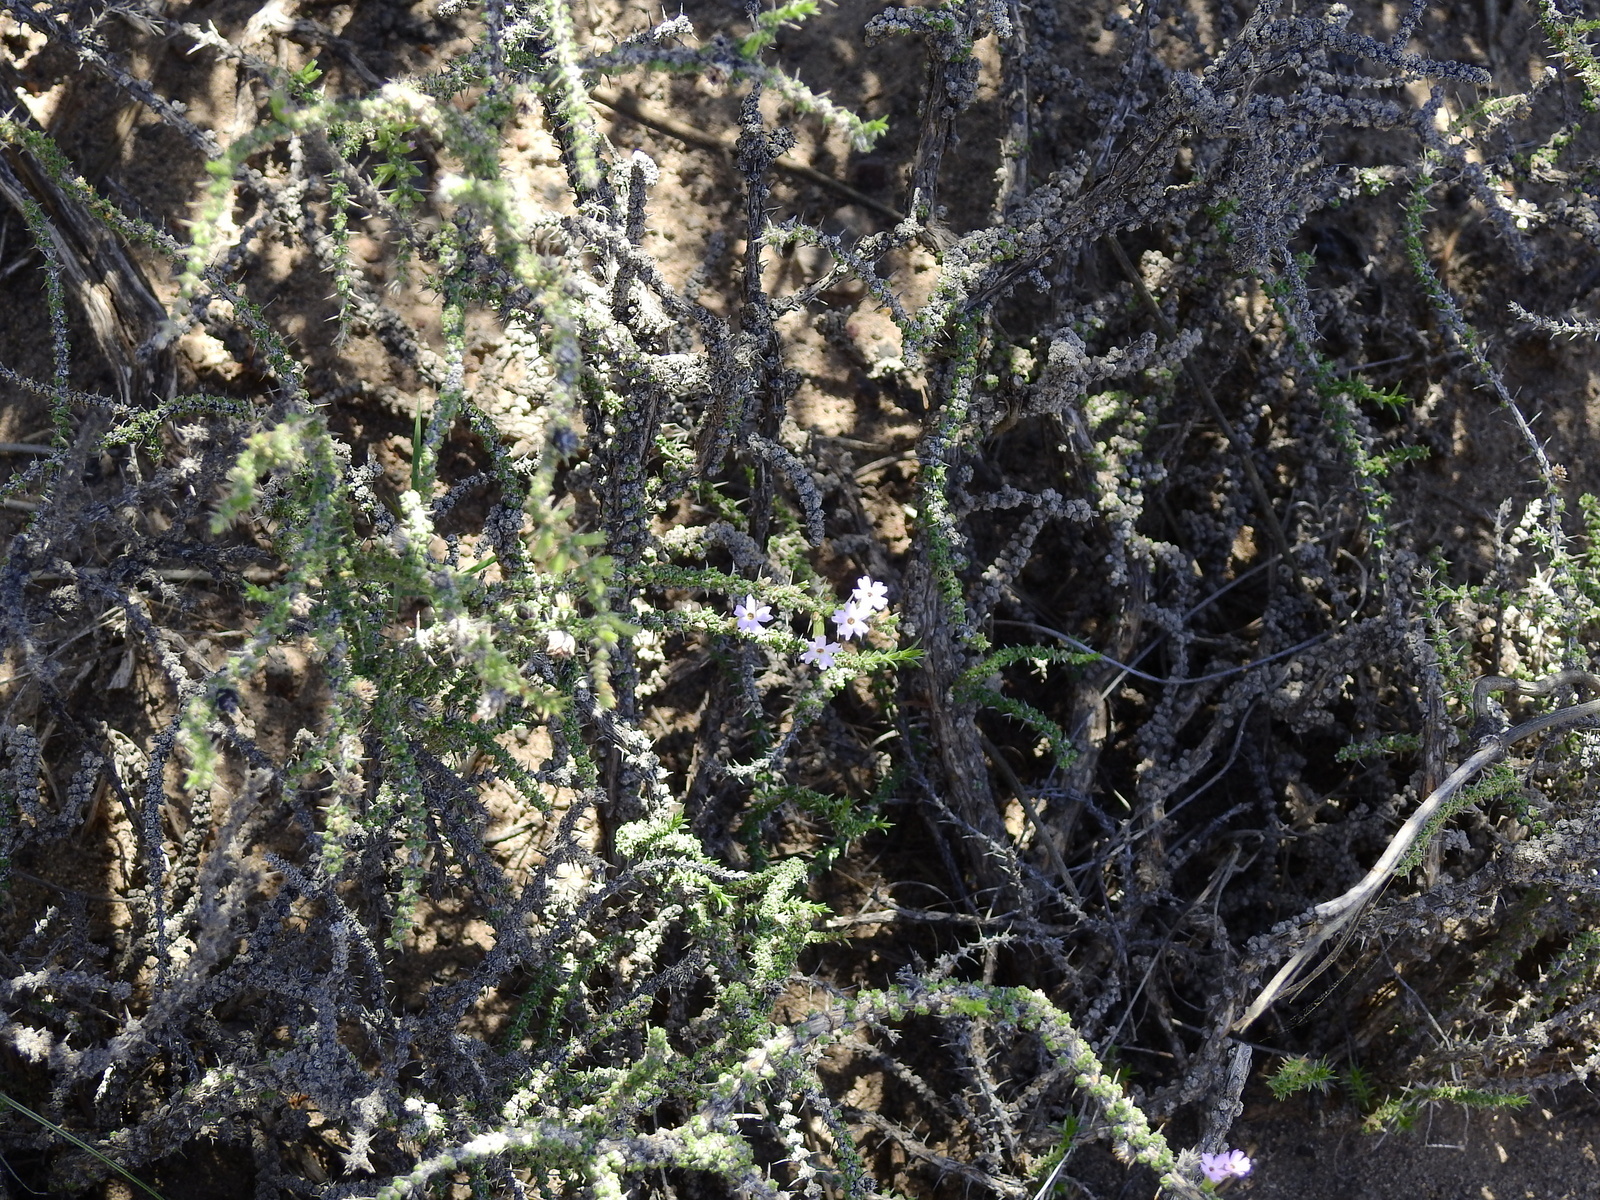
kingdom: Plantae
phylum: Tracheophyta
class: Magnoliopsida
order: Lamiales
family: Verbenaceae
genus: Junellia
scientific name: Junellia seriphioides
